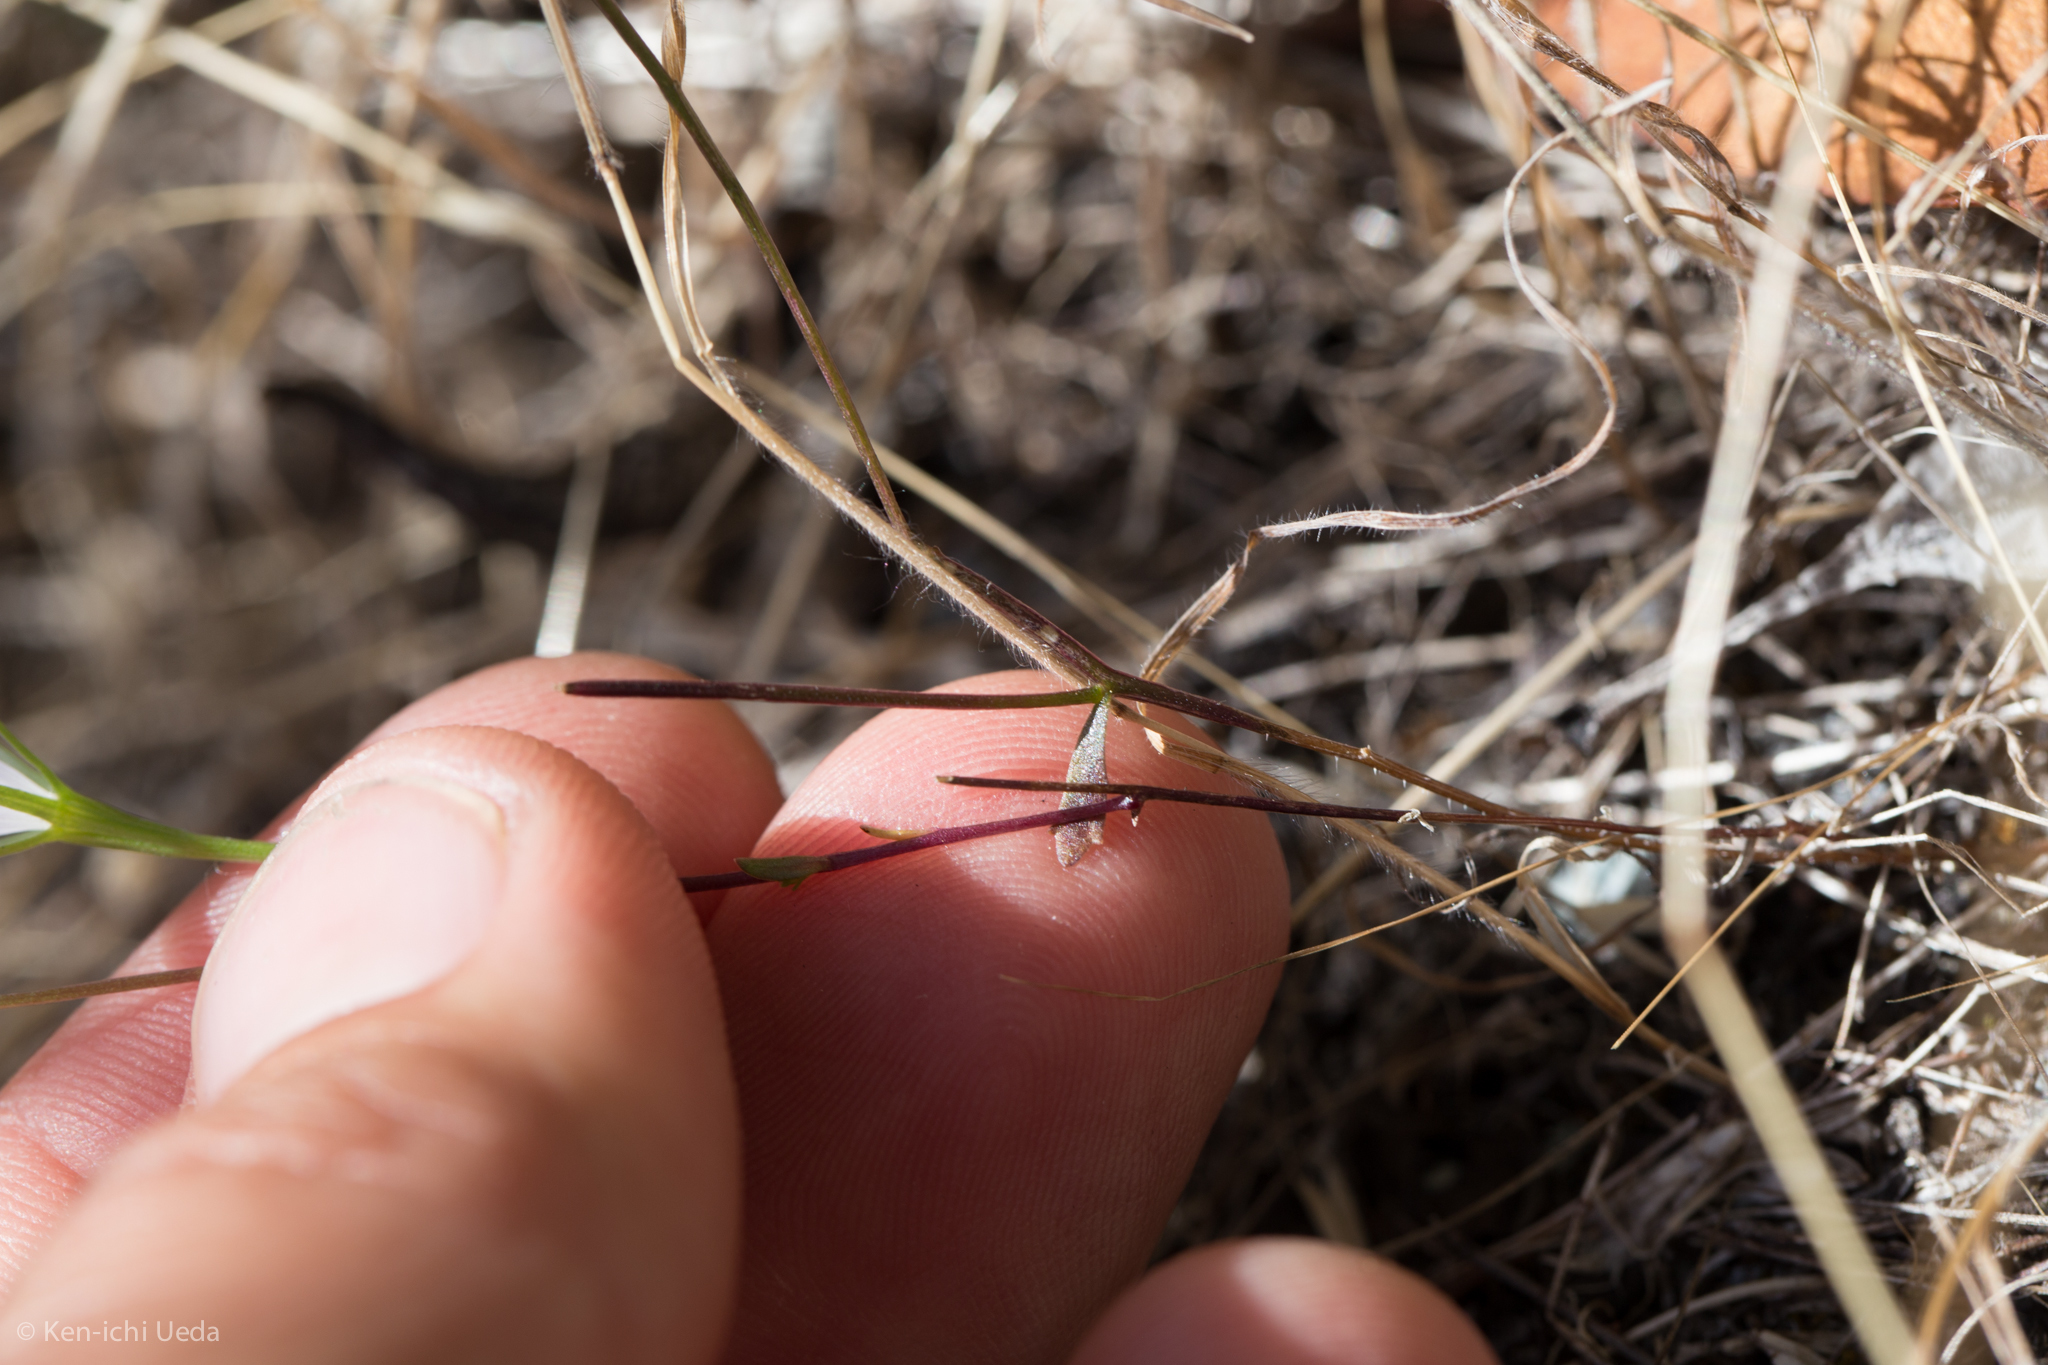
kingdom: Plantae
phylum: Tracheophyta
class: Magnoliopsida
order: Asterales
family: Campanulaceae
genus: Githopsis
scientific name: Githopsis pulchella
